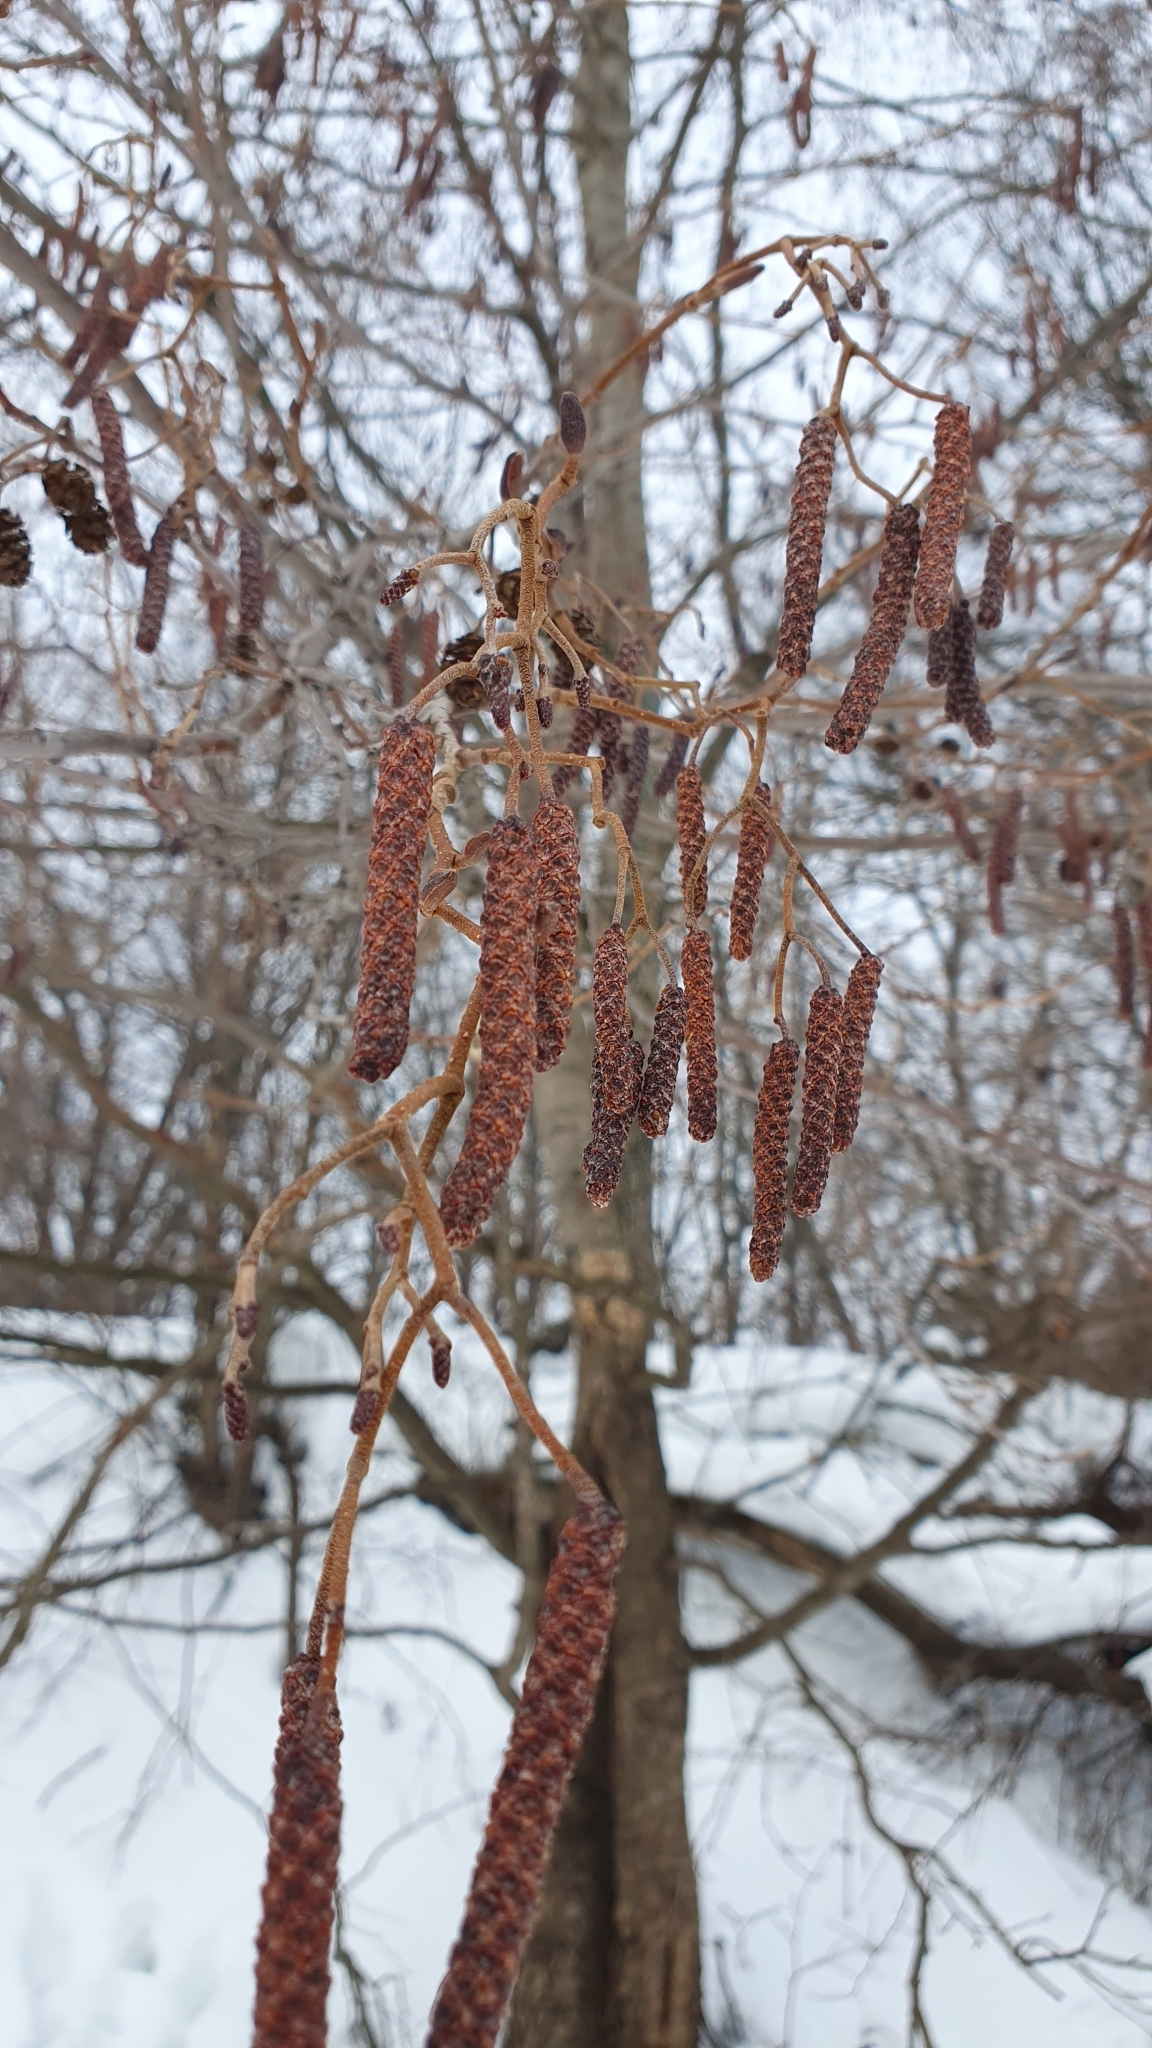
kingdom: Plantae
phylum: Tracheophyta
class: Magnoliopsida
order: Fagales
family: Betulaceae
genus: Alnus
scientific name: Alnus glutinosa
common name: Black alder
